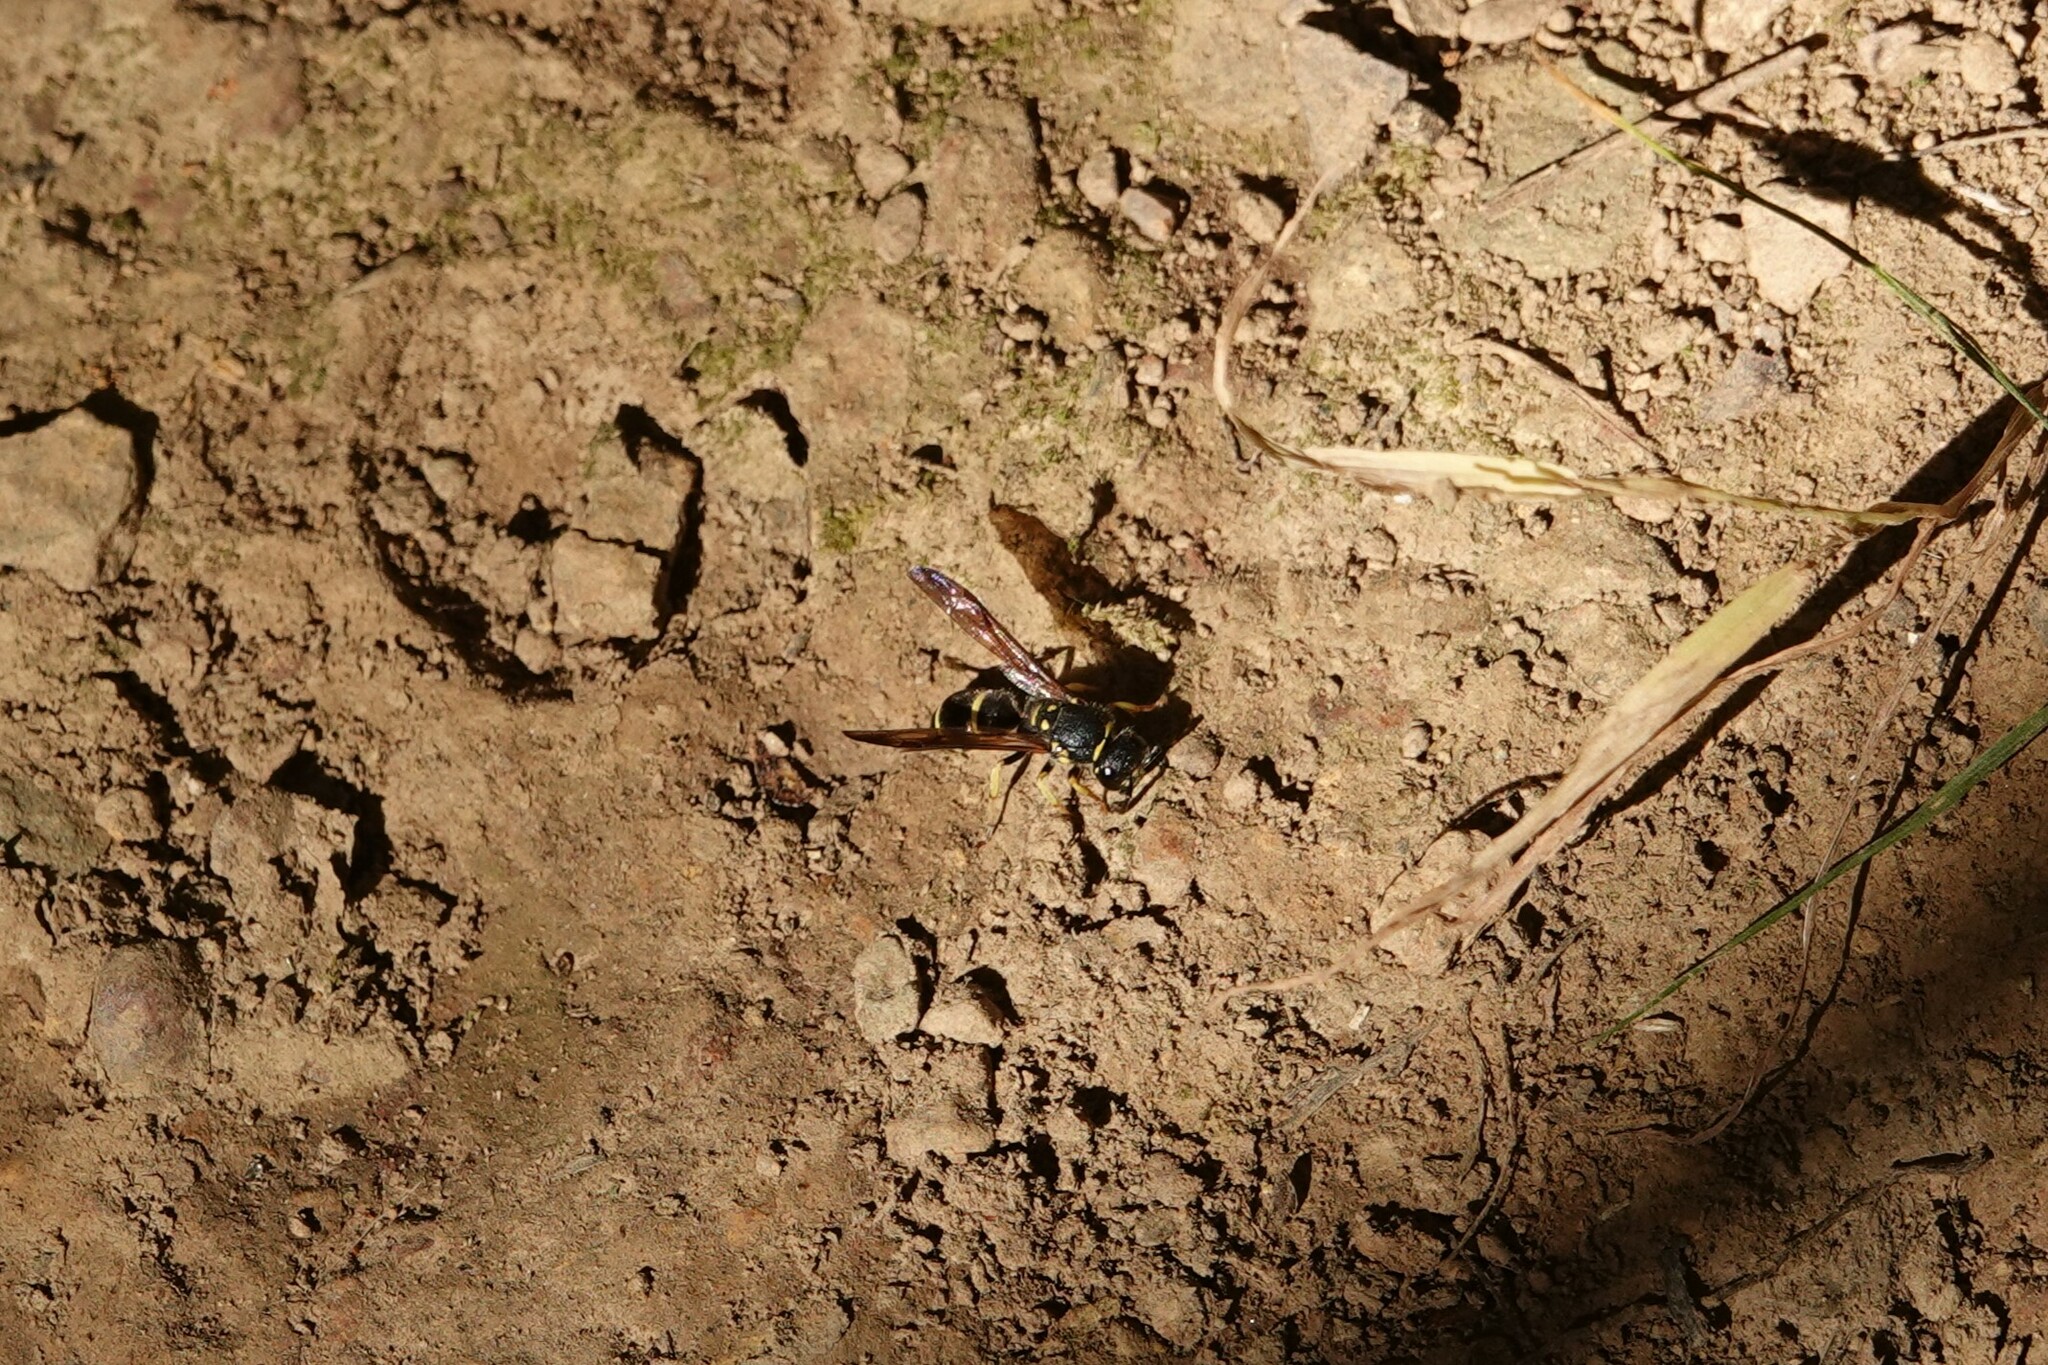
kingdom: Animalia
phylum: Arthropoda
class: Insecta
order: Hymenoptera
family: Vespidae
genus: Ancistrocerus
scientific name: Ancistrocerus adiabatus
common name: Bramble mason wasp
